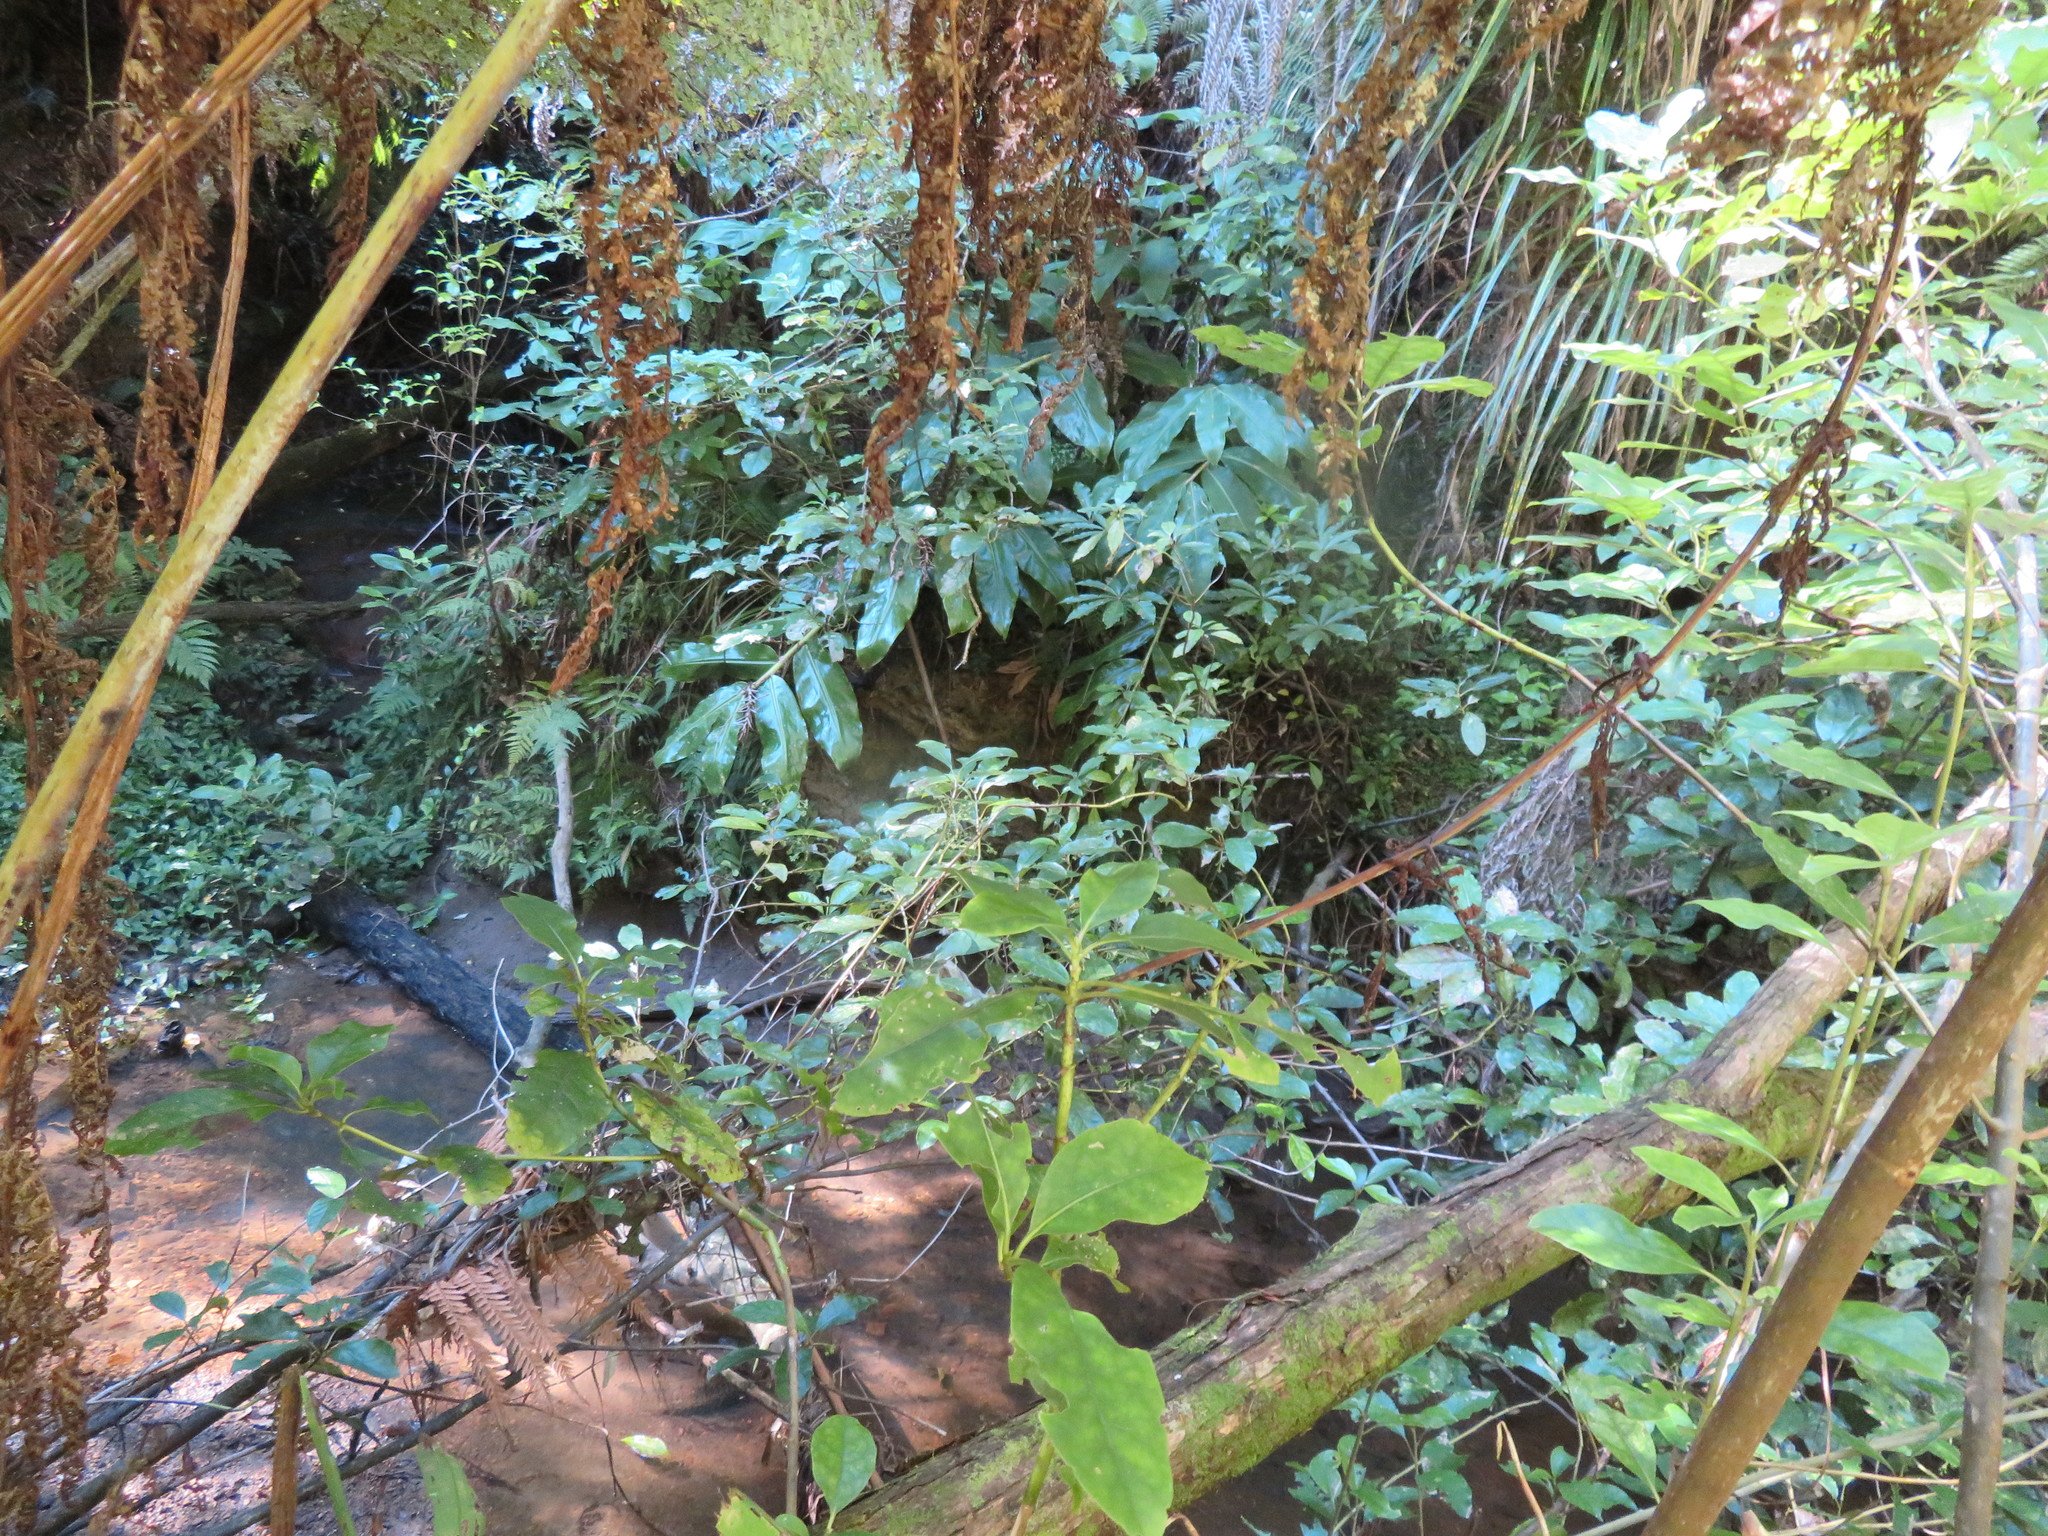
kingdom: Plantae
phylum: Tracheophyta
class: Liliopsida
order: Zingiberales
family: Zingiberaceae
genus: Hedychium
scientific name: Hedychium gardnerianum
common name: Himalayan ginger
